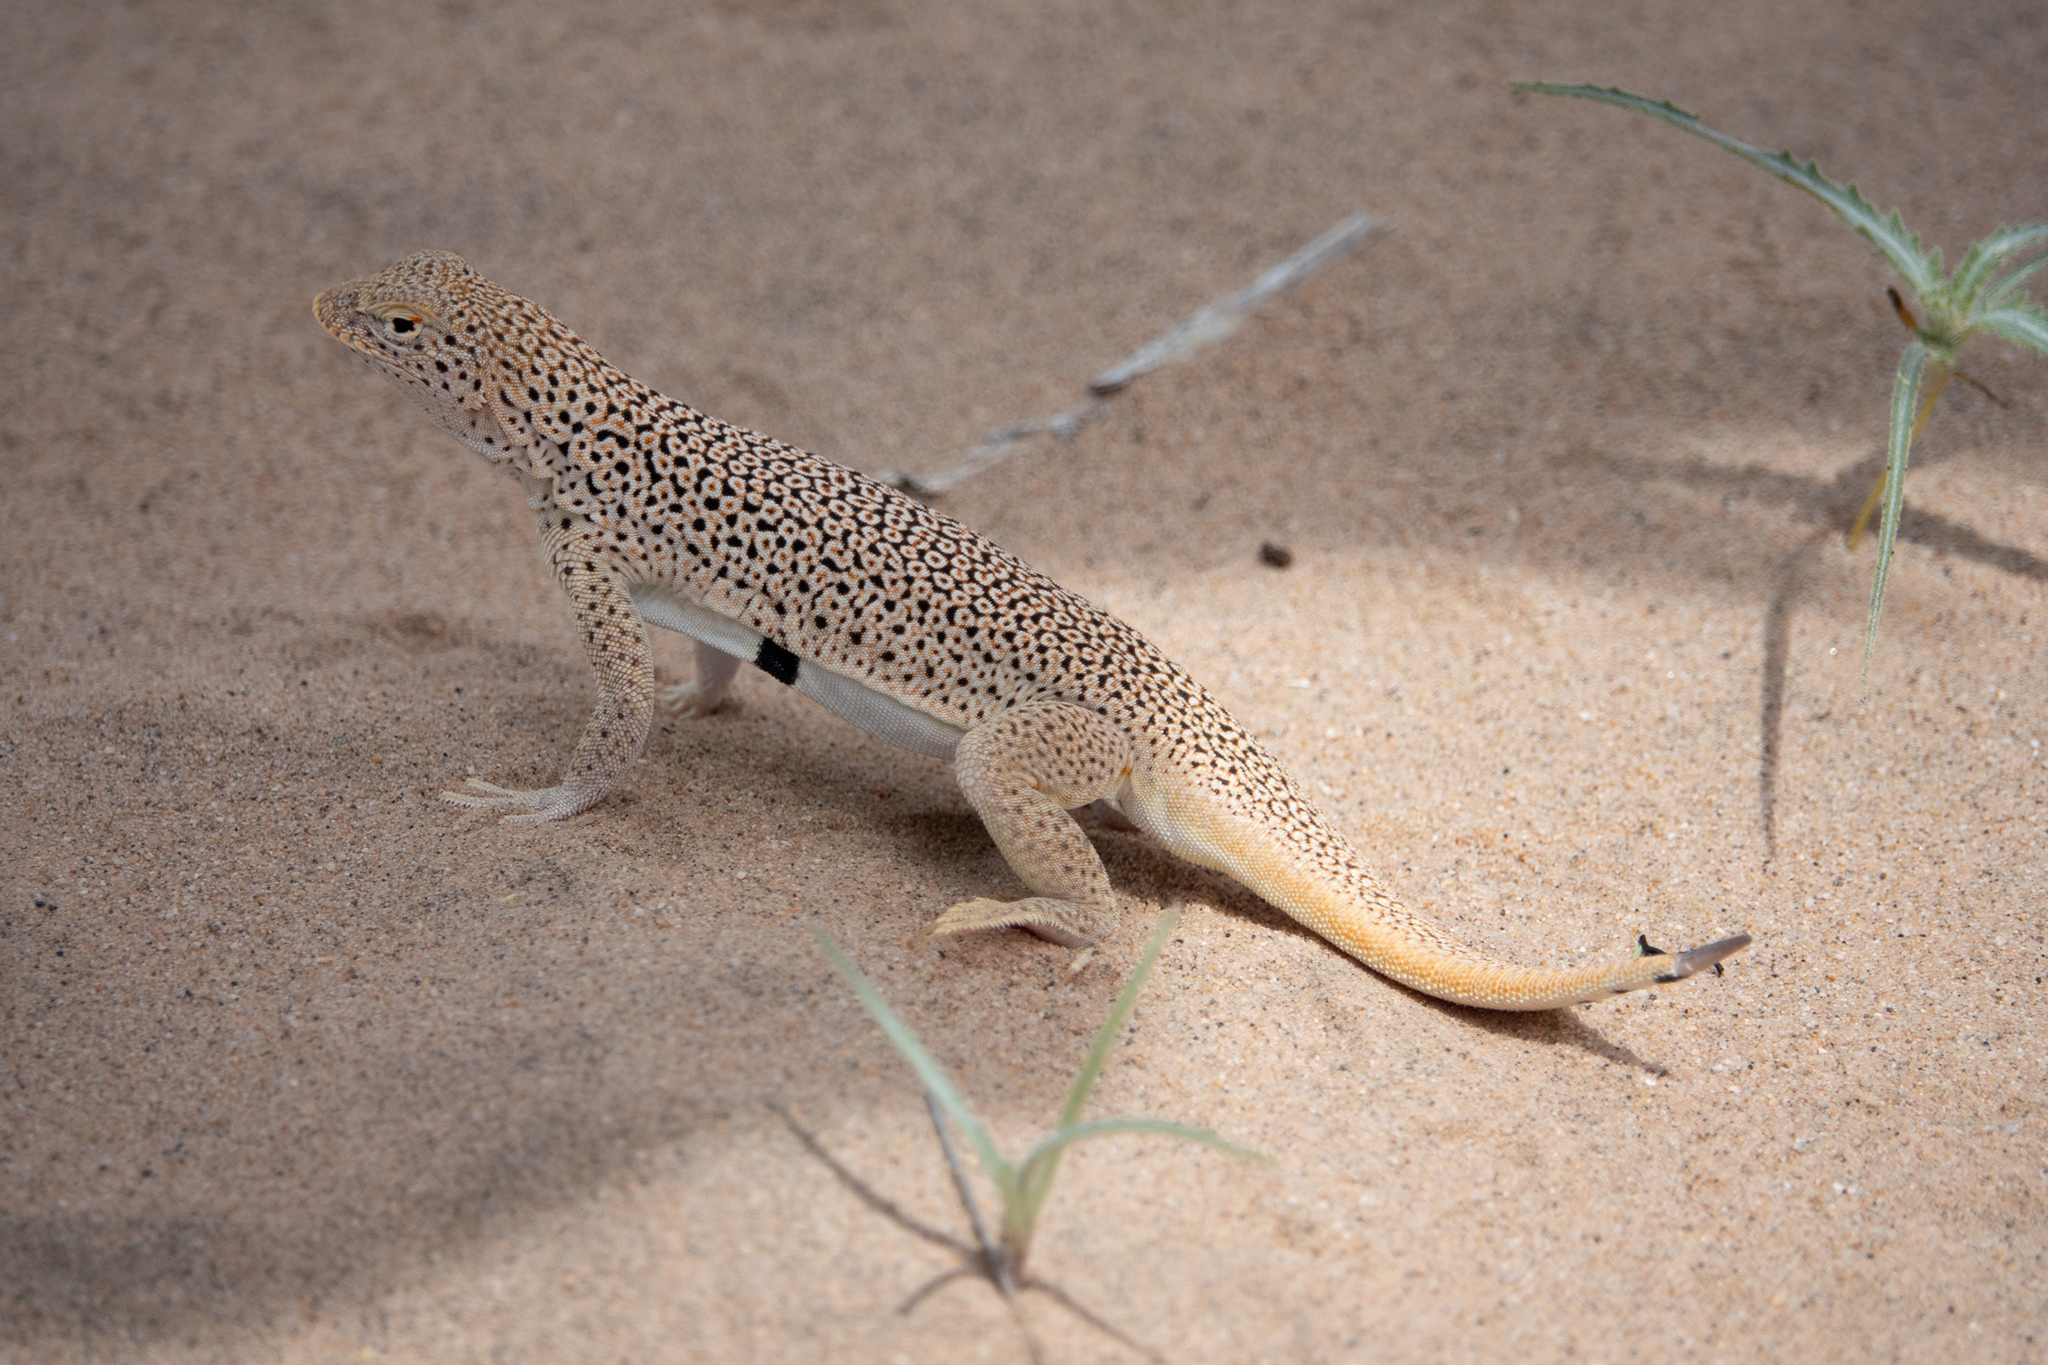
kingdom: Animalia
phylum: Chordata
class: Squamata
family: Phrynosomatidae
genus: Uma
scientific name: Uma scoparia
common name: Mojave fringe-toed lizard
